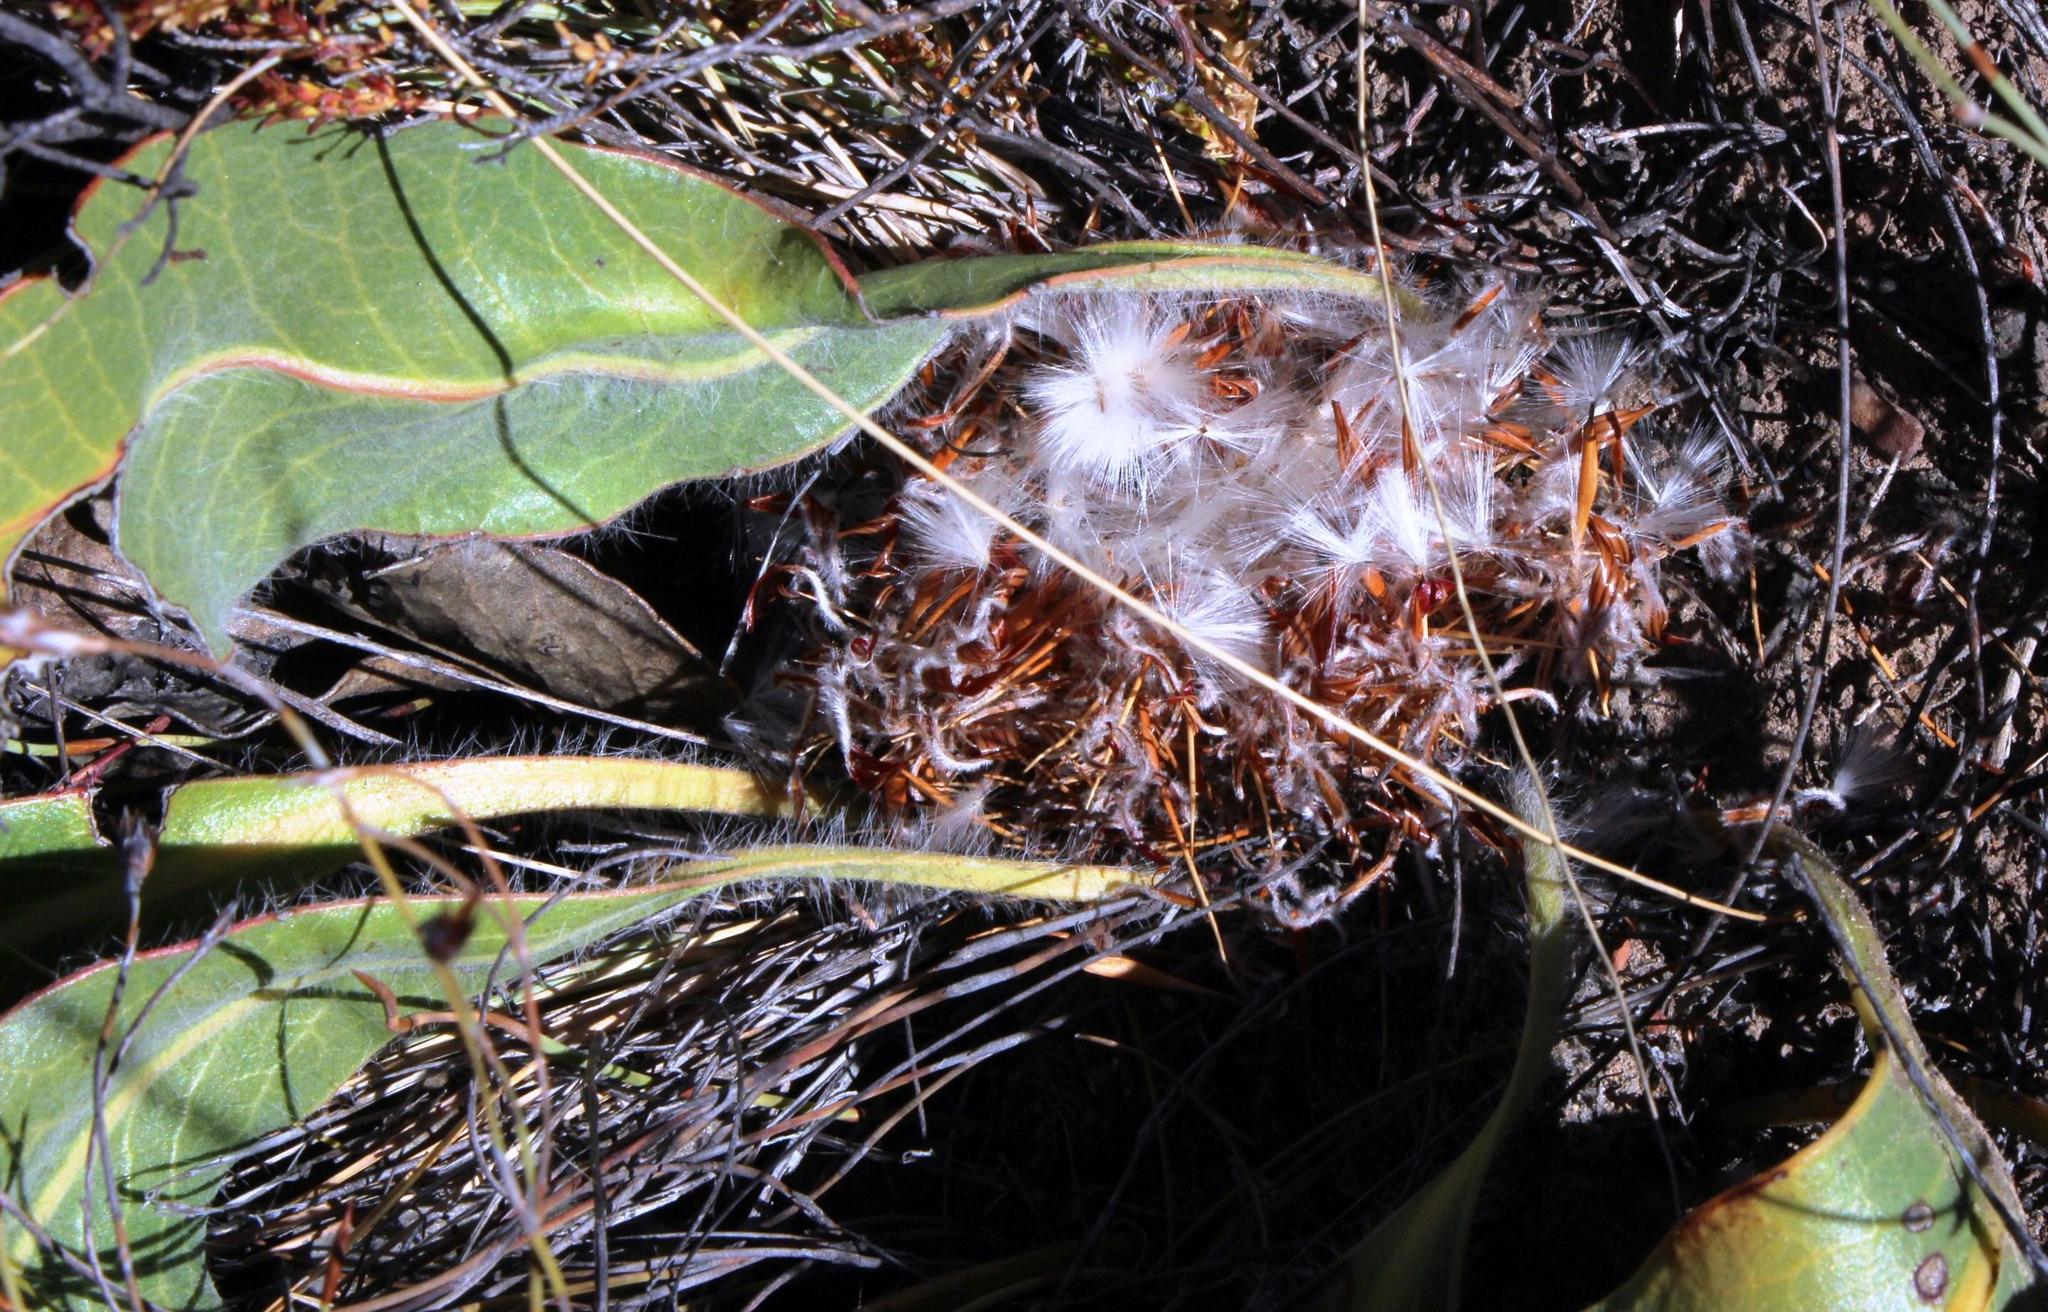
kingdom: Plantae
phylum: Tracheophyta
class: Magnoliopsida
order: Proteales
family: Proteaceae
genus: Protea
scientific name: Protea scolopendriifolia
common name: Harts-tongue-fern sugarbush
